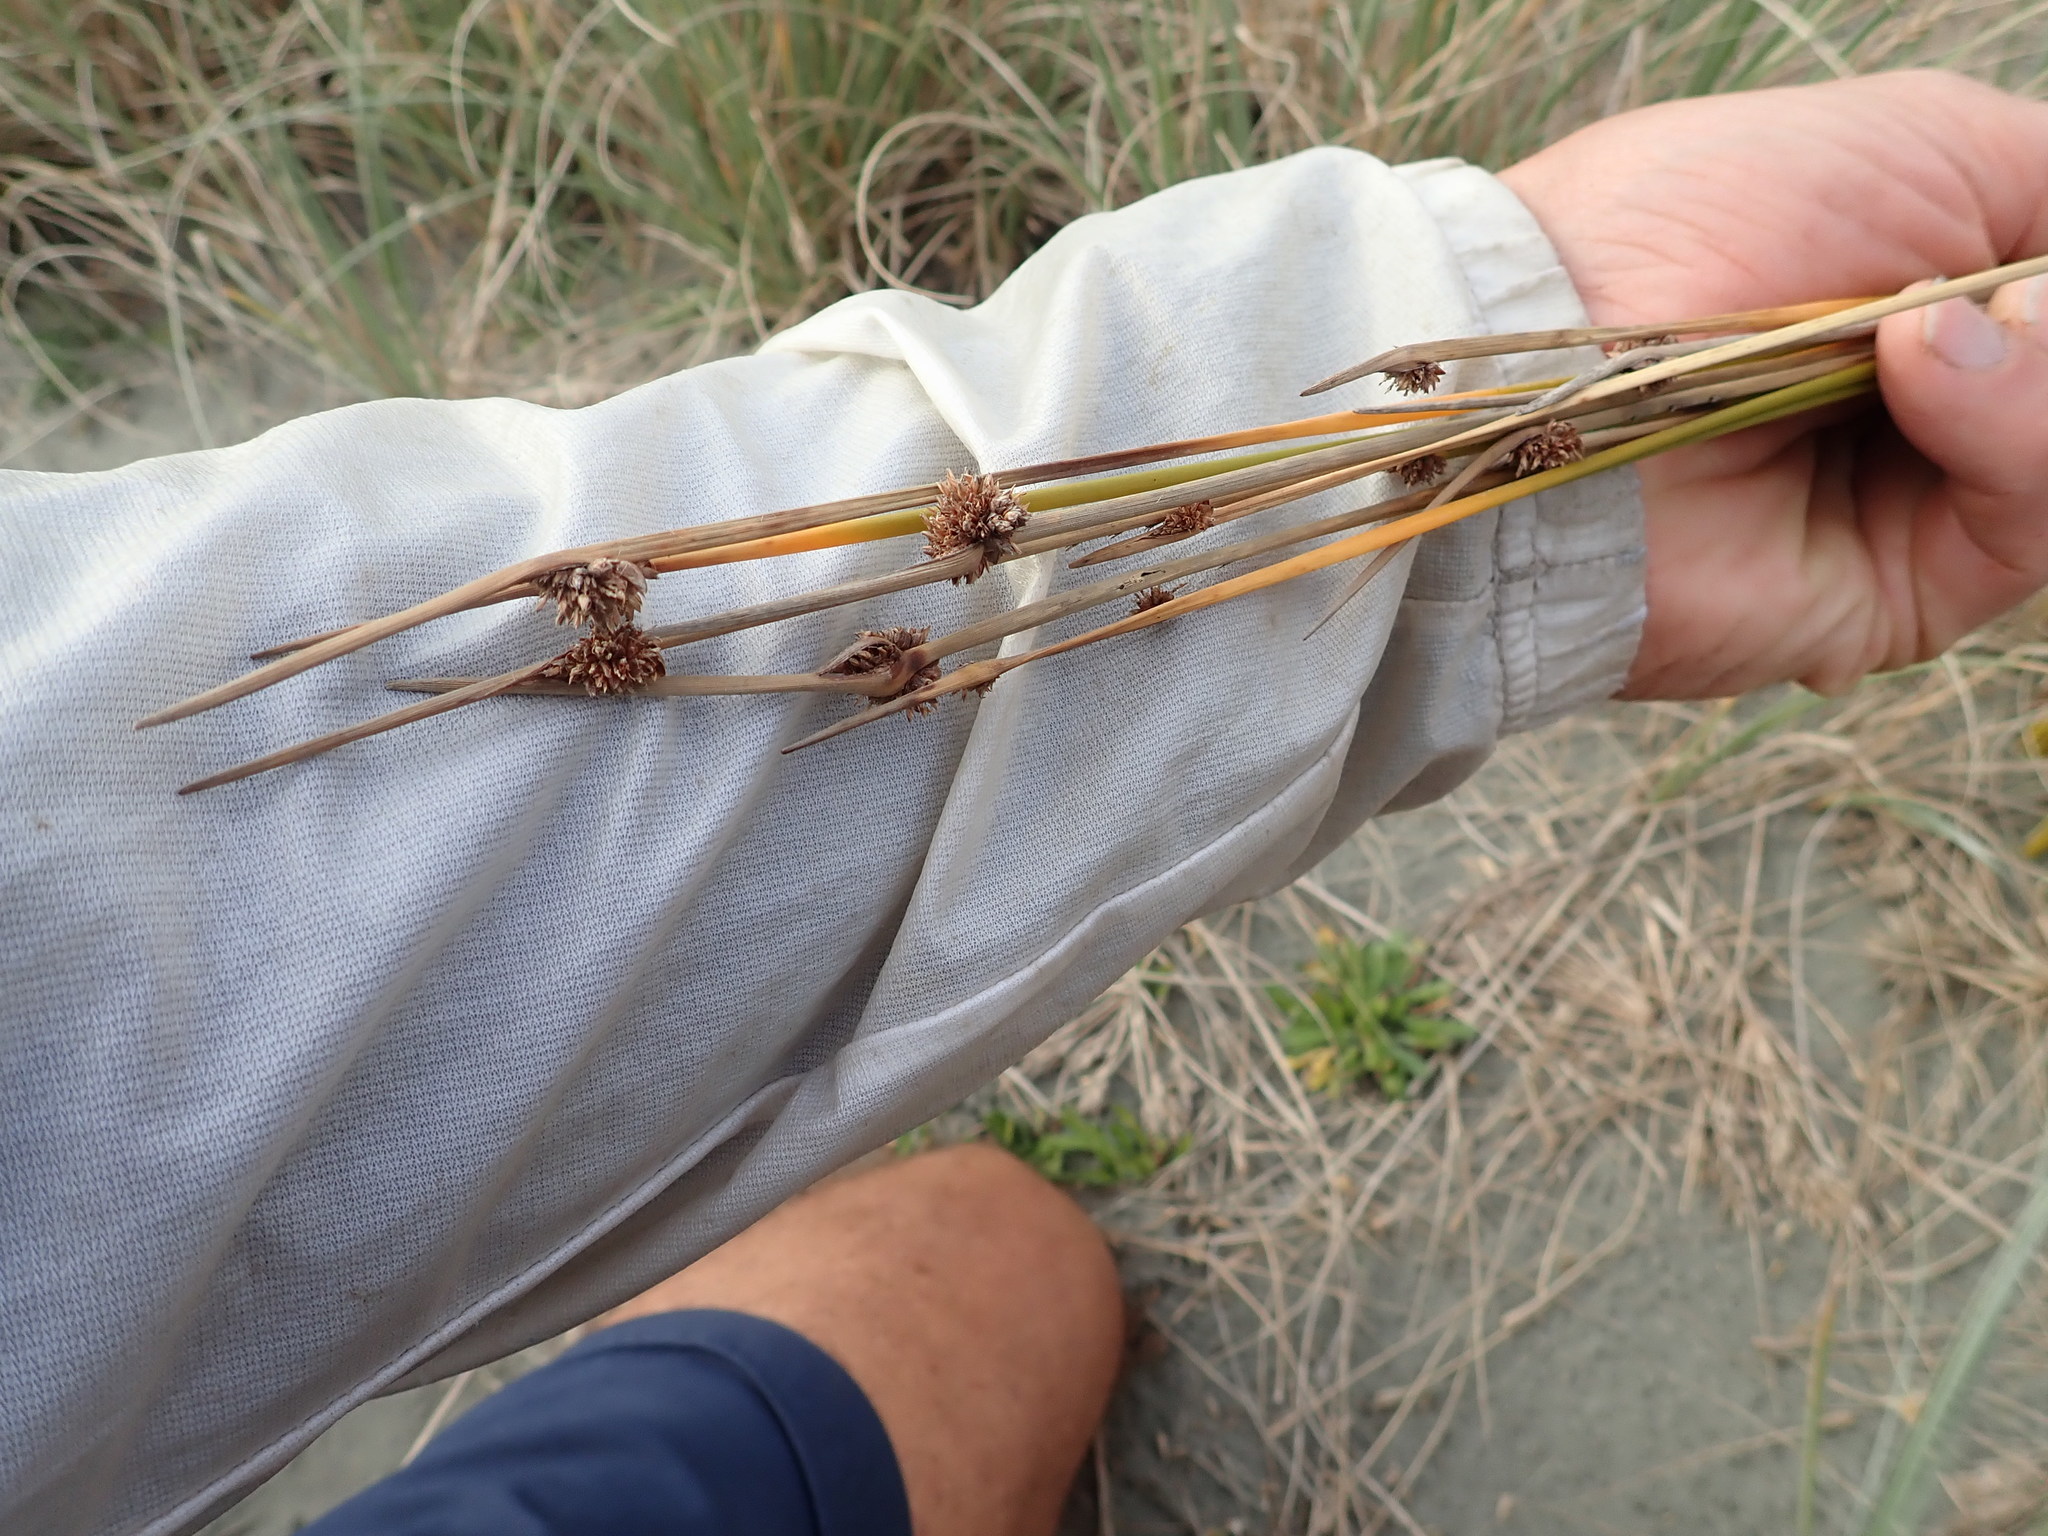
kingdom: Plantae
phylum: Tracheophyta
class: Liliopsida
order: Poales
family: Cyperaceae
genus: Ficinia
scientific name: Ficinia nodosa
